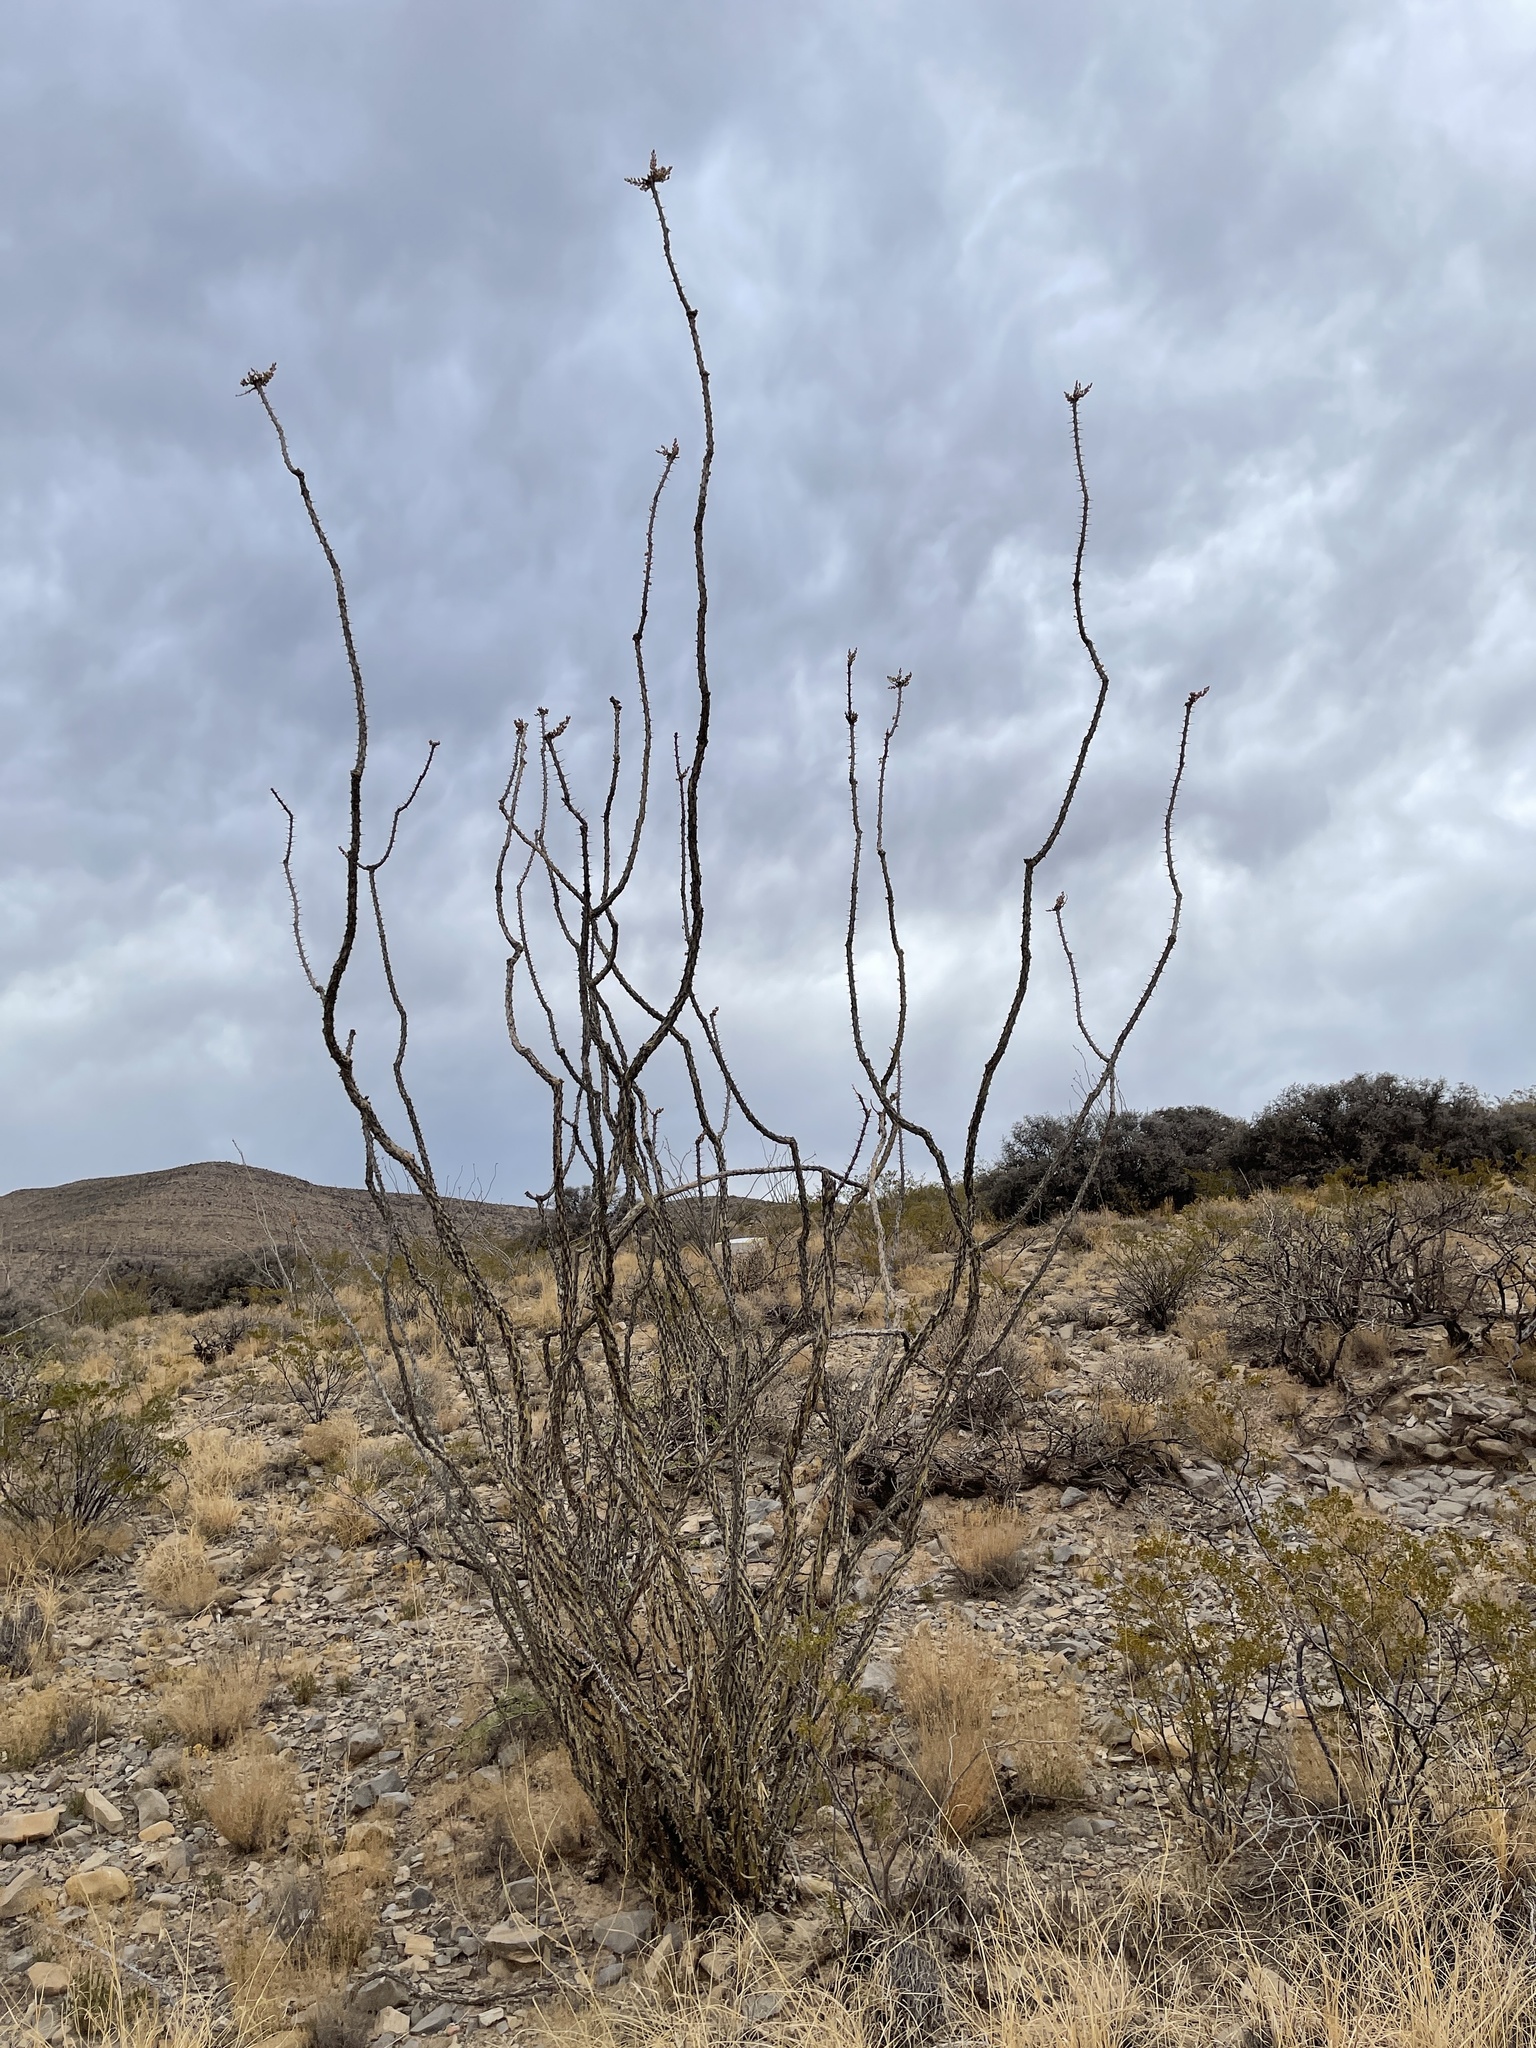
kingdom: Plantae
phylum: Tracheophyta
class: Magnoliopsida
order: Ericales
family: Fouquieriaceae
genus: Fouquieria
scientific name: Fouquieria splendens
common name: Vine-cactus
